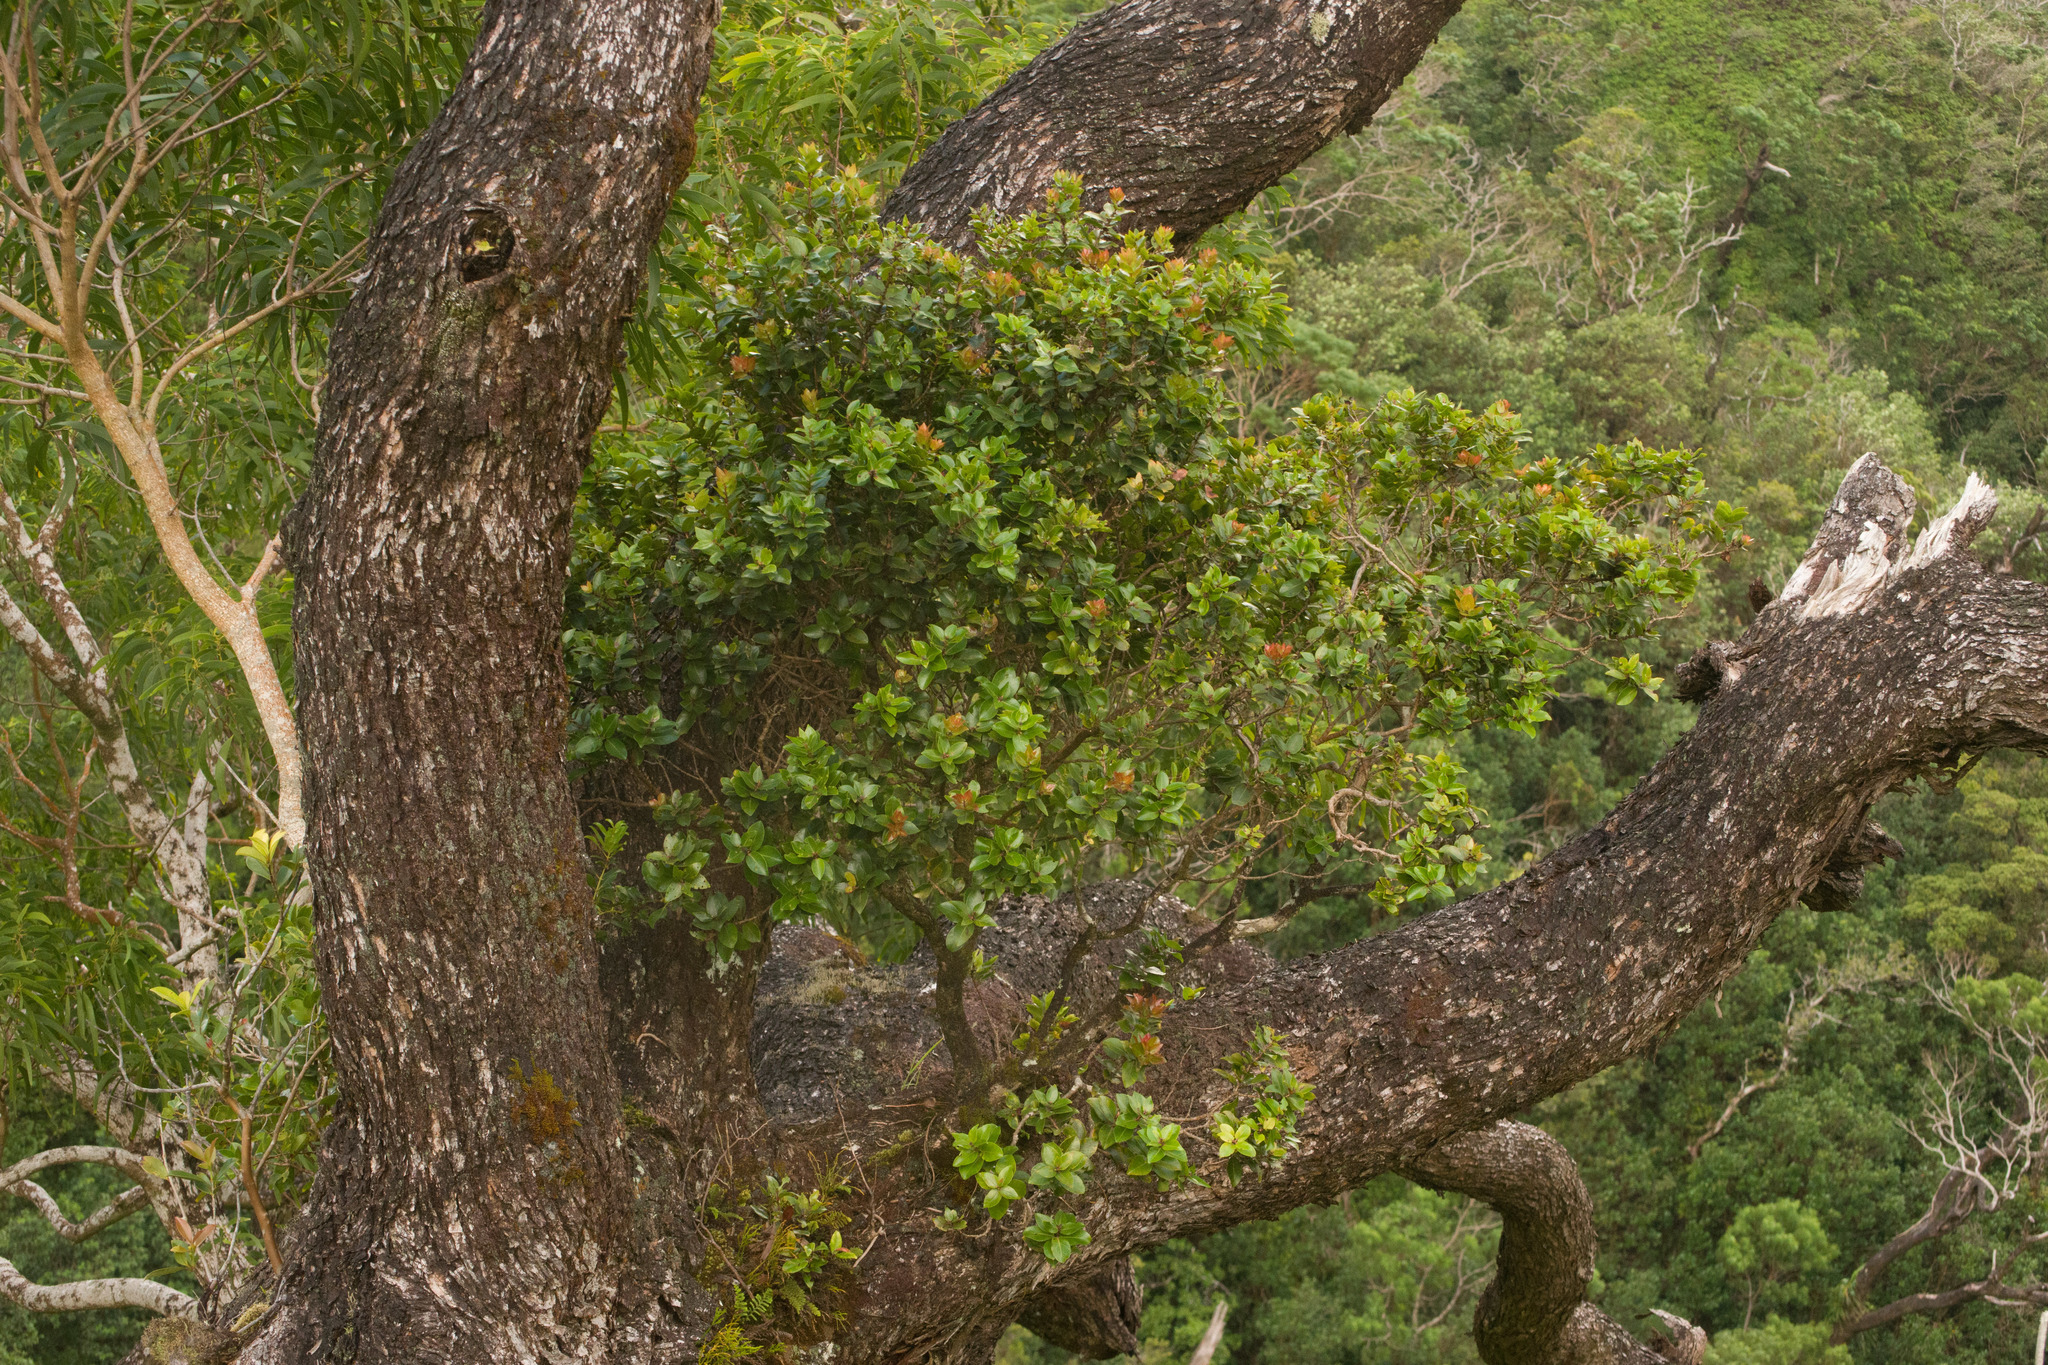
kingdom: Plantae
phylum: Tracheophyta
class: Magnoliopsida
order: Myrtales
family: Myrtaceae
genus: Metrosideros
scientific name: Metrosideros polymorpha
